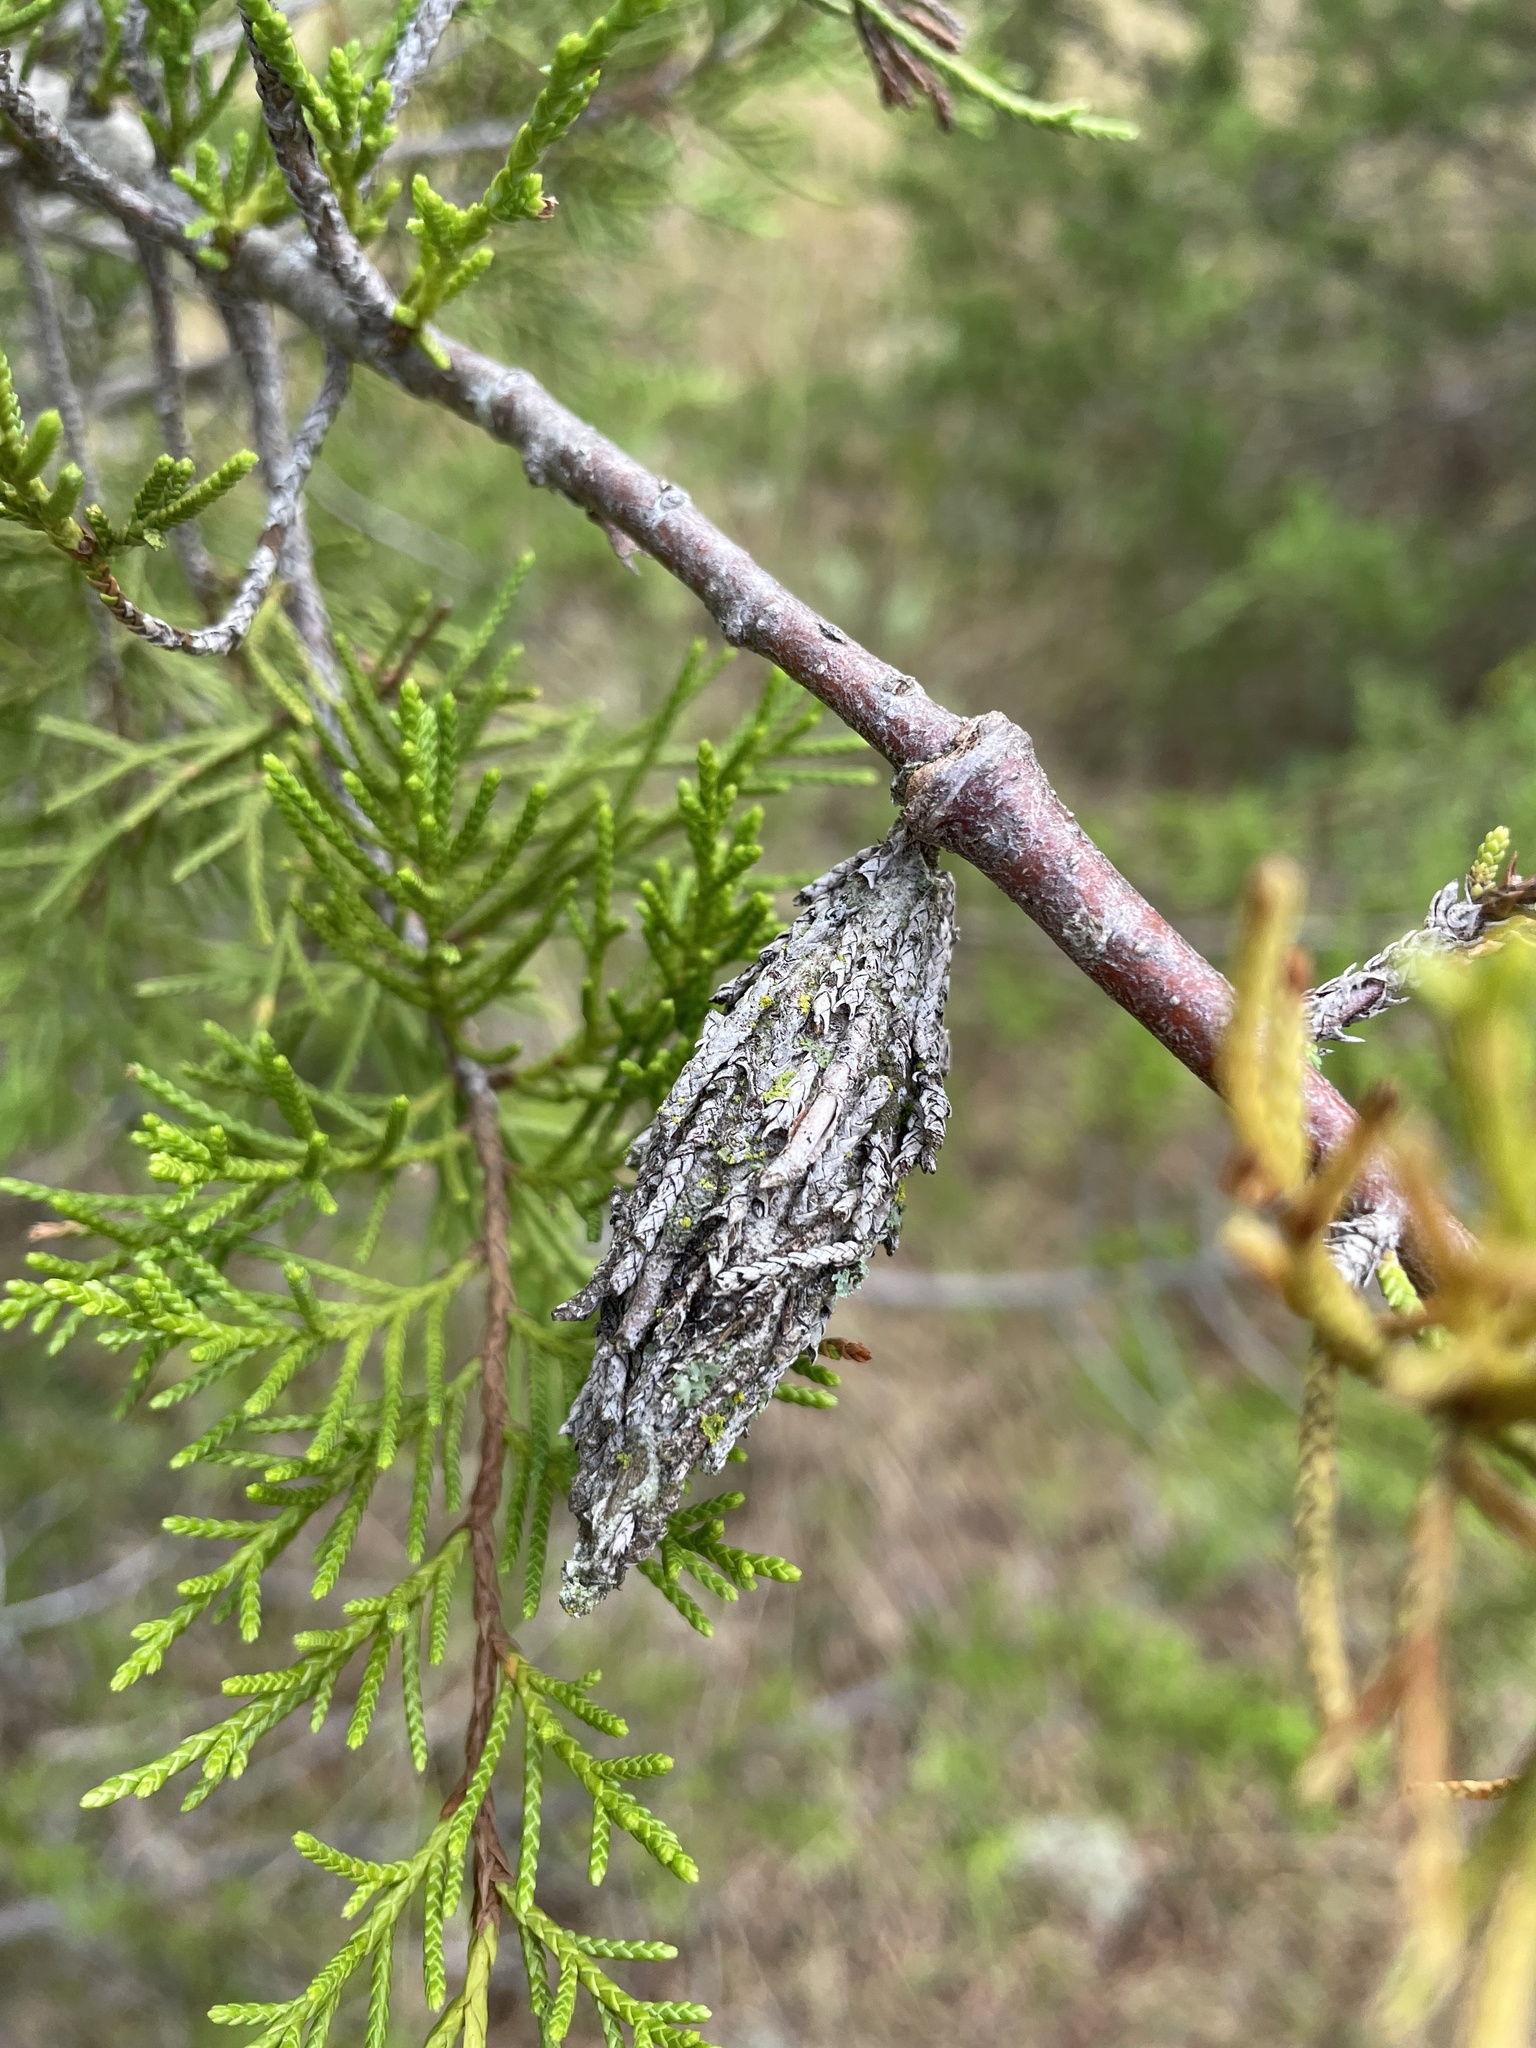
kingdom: Animalia
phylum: Arthropoda
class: Insecta
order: Lepidoptera
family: Psychidae
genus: Thyridopteryx
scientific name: Thyridopteryx ephemeraeformis
